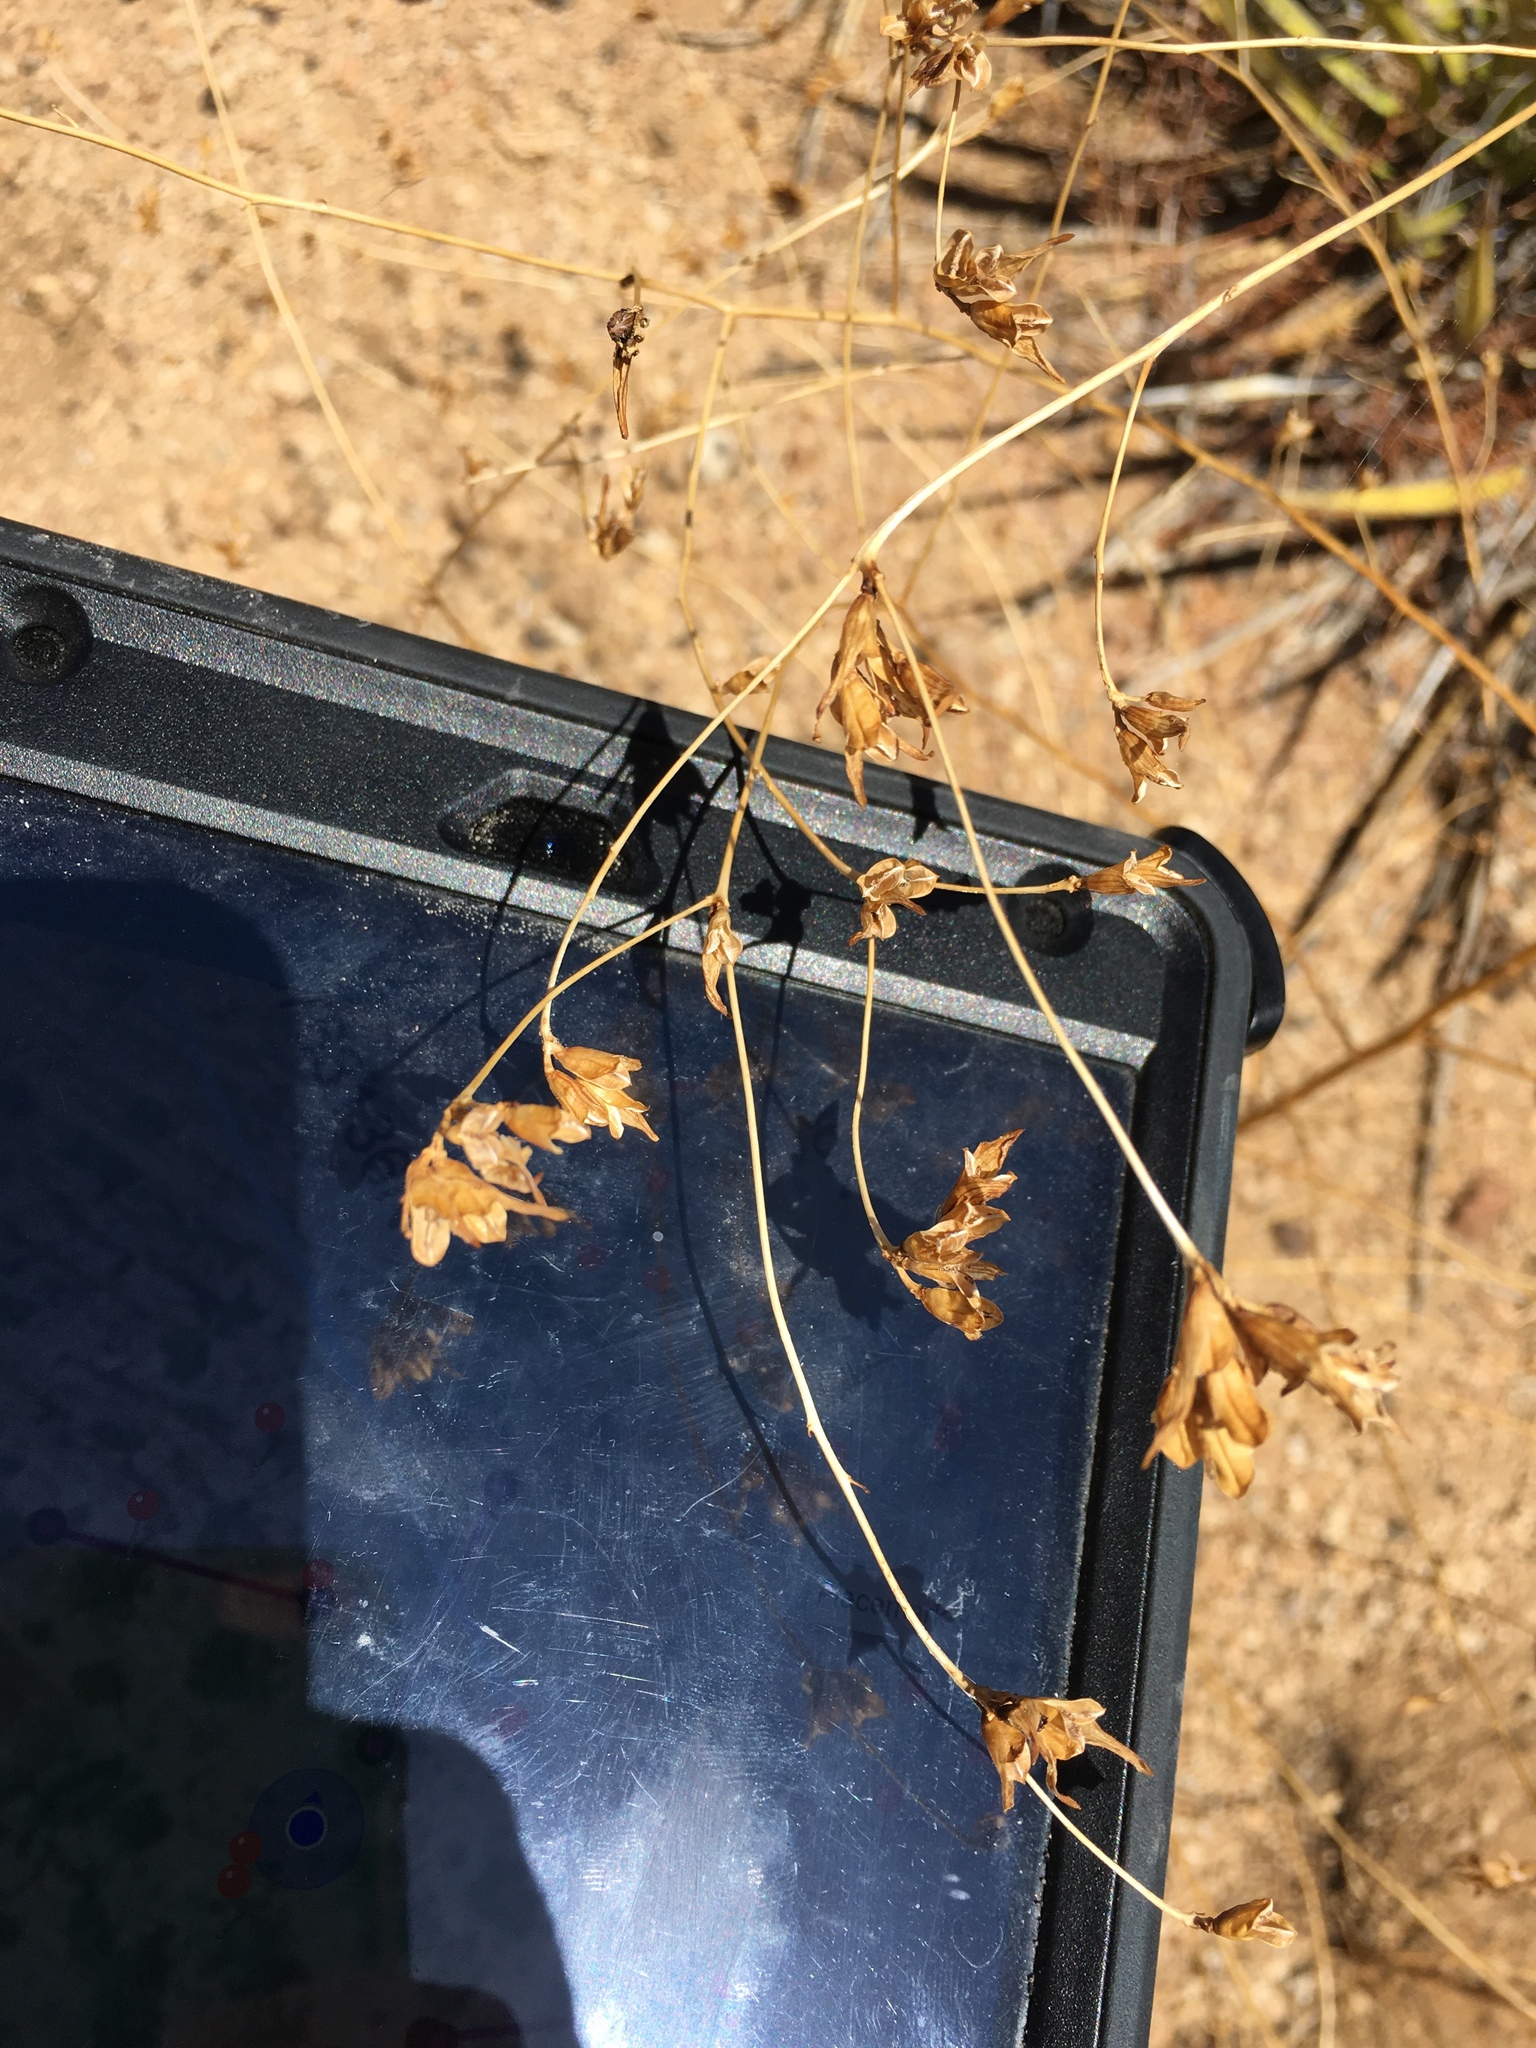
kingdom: Plantae
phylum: Tracheophyta
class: Magnoliopsida
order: Lamiales
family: Orobanchaceae
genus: Cordylanthus
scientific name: Cordylanthus rigidus
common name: Stiff-branch bird's-beak
